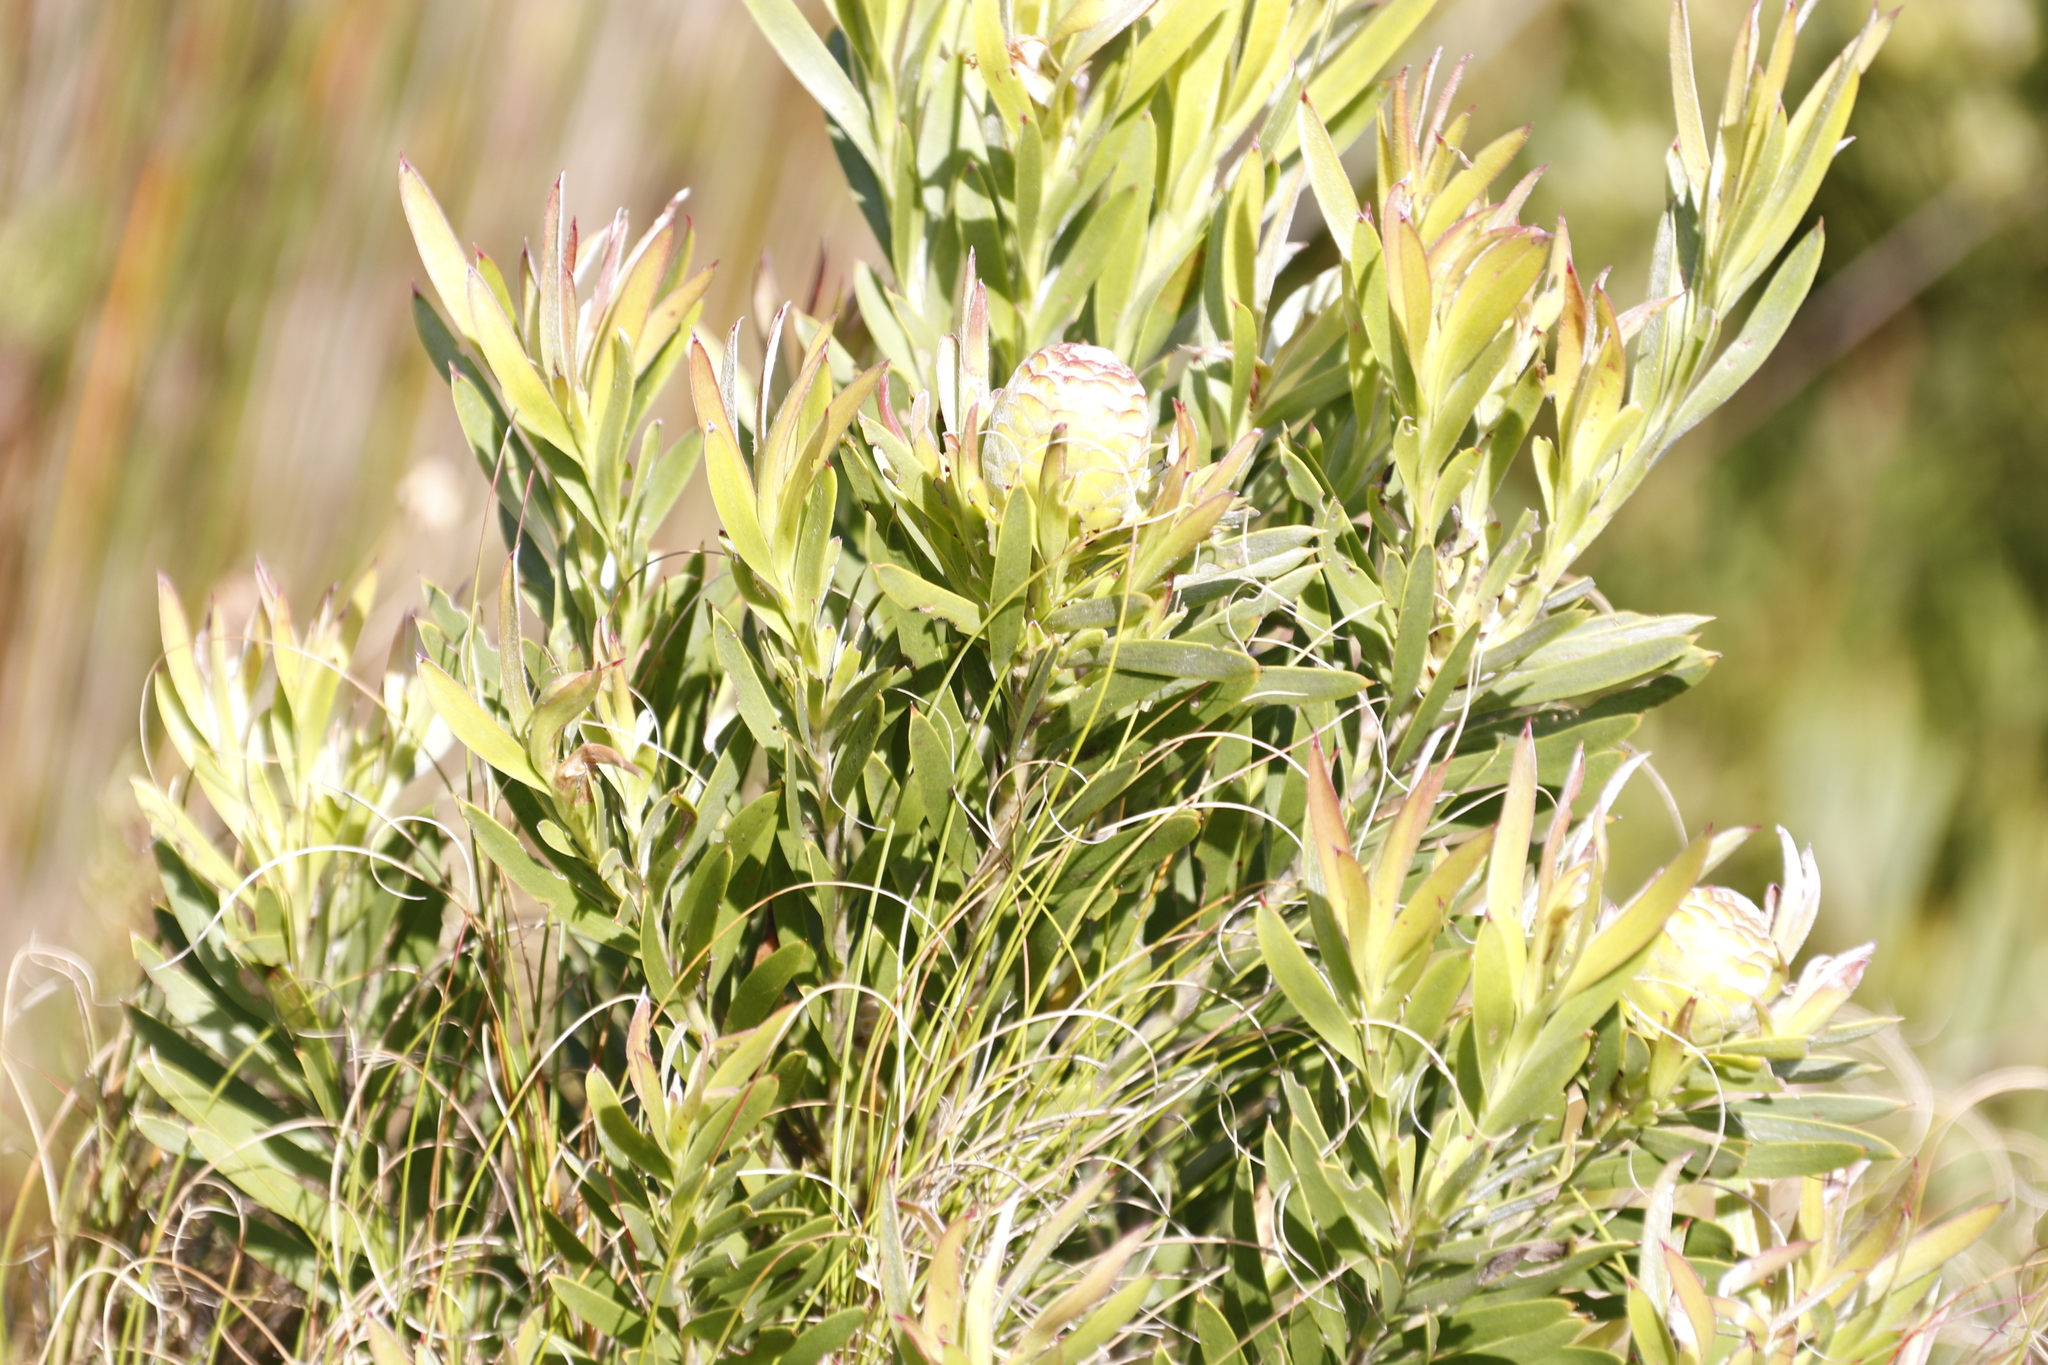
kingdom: Plantae
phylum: Tracheophyta
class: Magnoliopsida
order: Proteales
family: Proteaceae
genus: Leucadendron
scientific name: Leucadendron xanthoconus
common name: Sickle-leaf conebush
